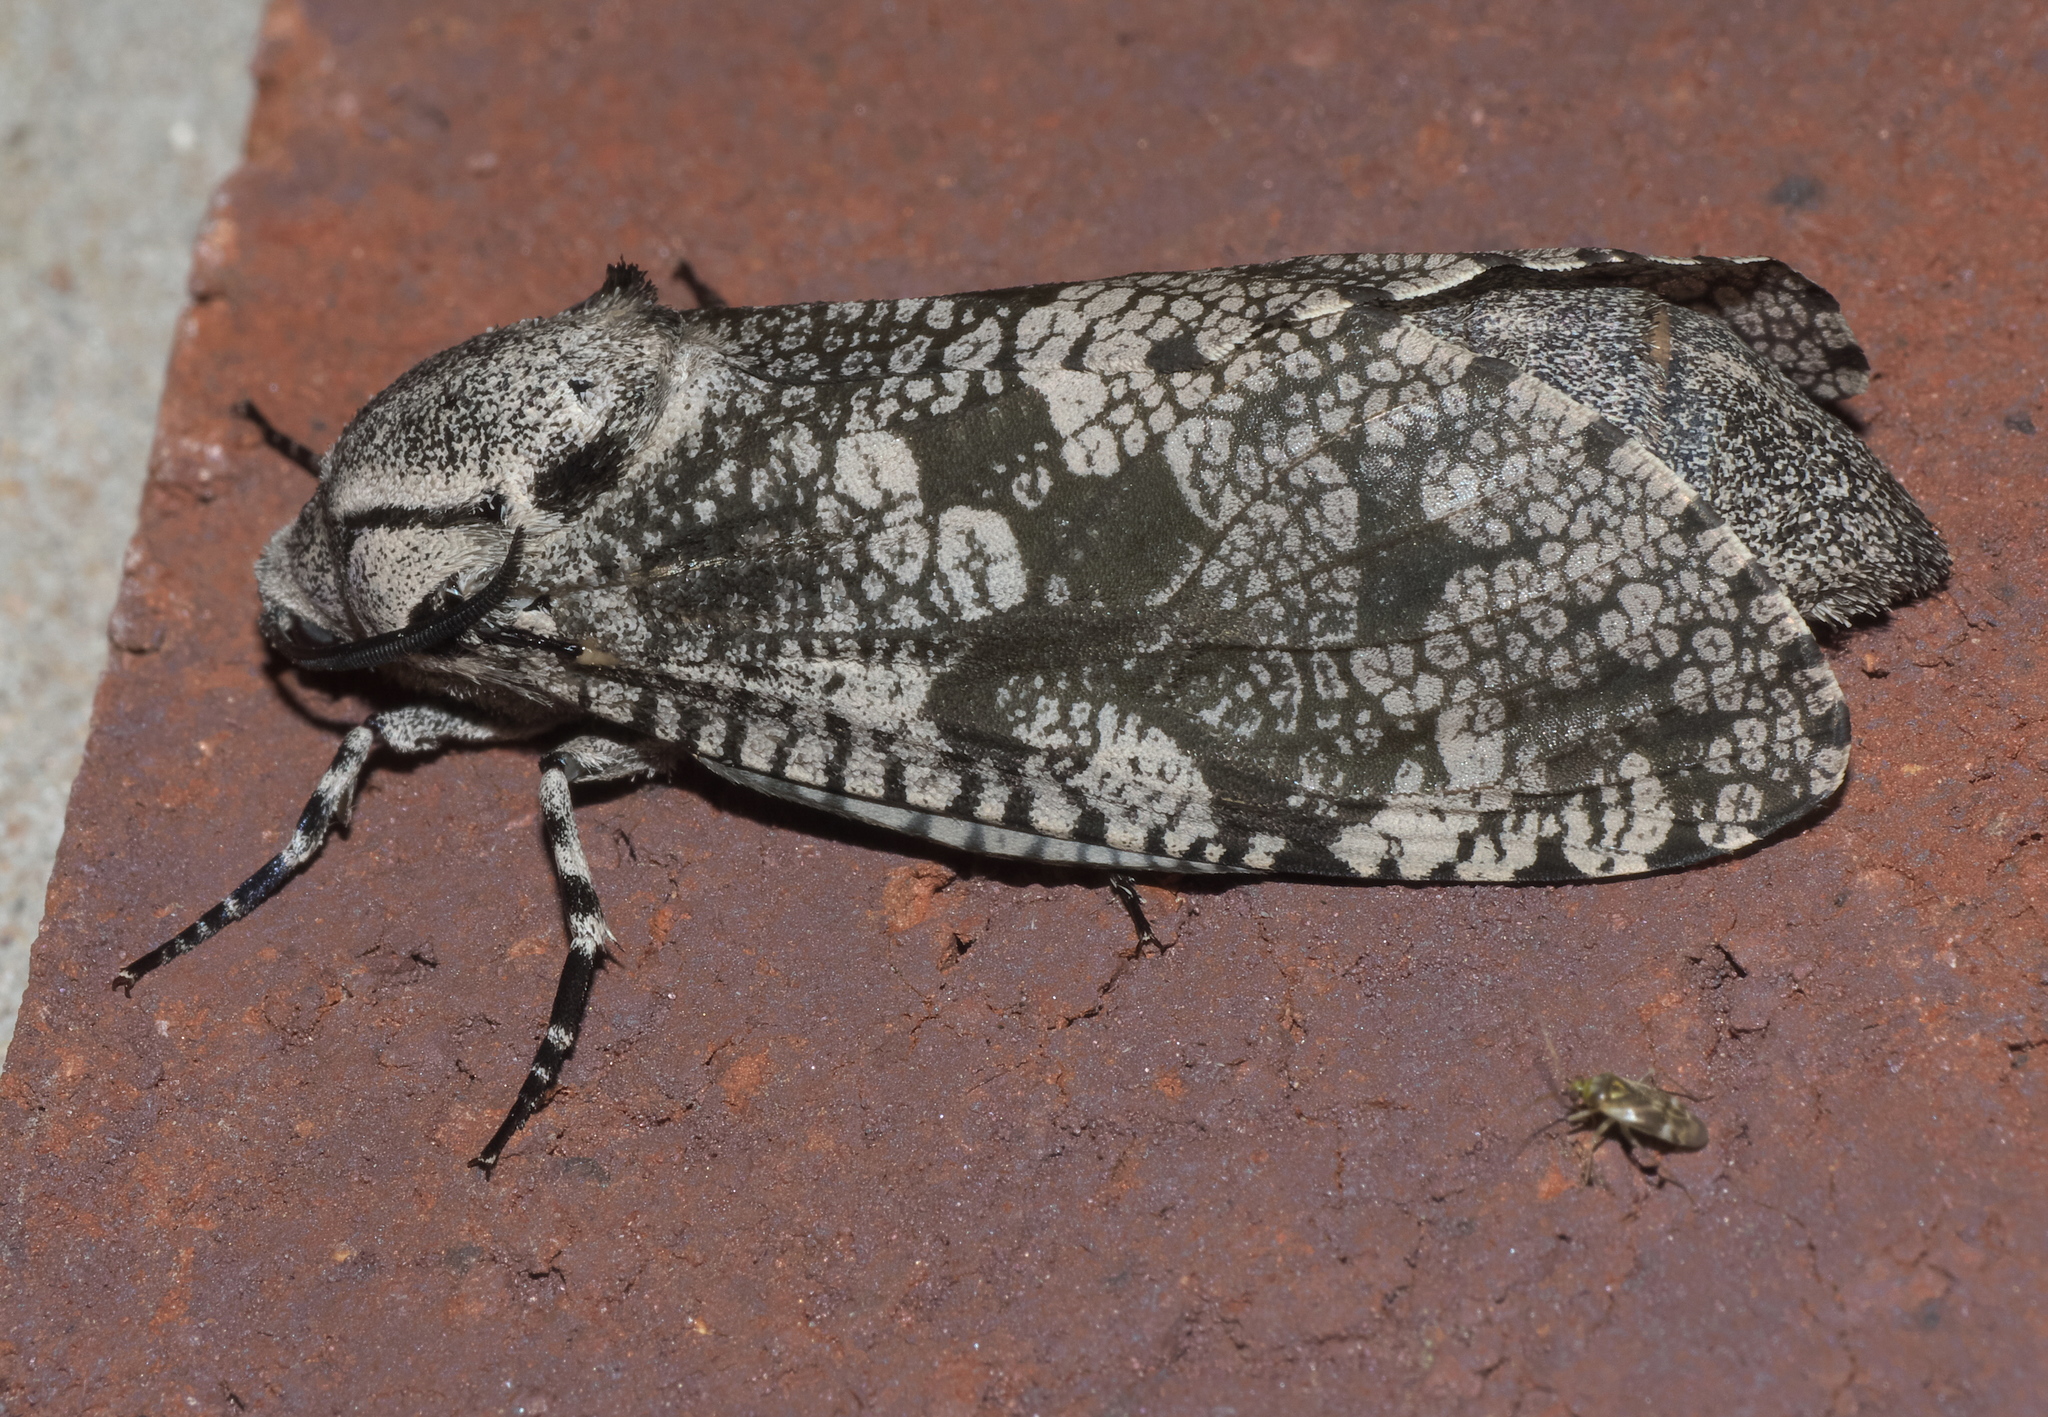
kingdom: Animalia
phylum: Arthropoda
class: Insecta
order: Lepidoptera
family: Cossidae
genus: Prionoxystus
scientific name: Prionoxystus robiniae
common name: Carpenterworm
